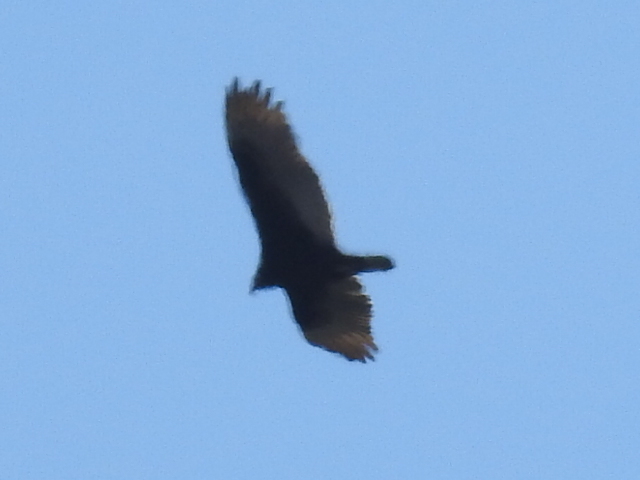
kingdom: Animalia
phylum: Chordata
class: Aves
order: Accipitriformes
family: Cathartidae
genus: Cathartes
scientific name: Cathartes aura
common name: Turkey vulture
